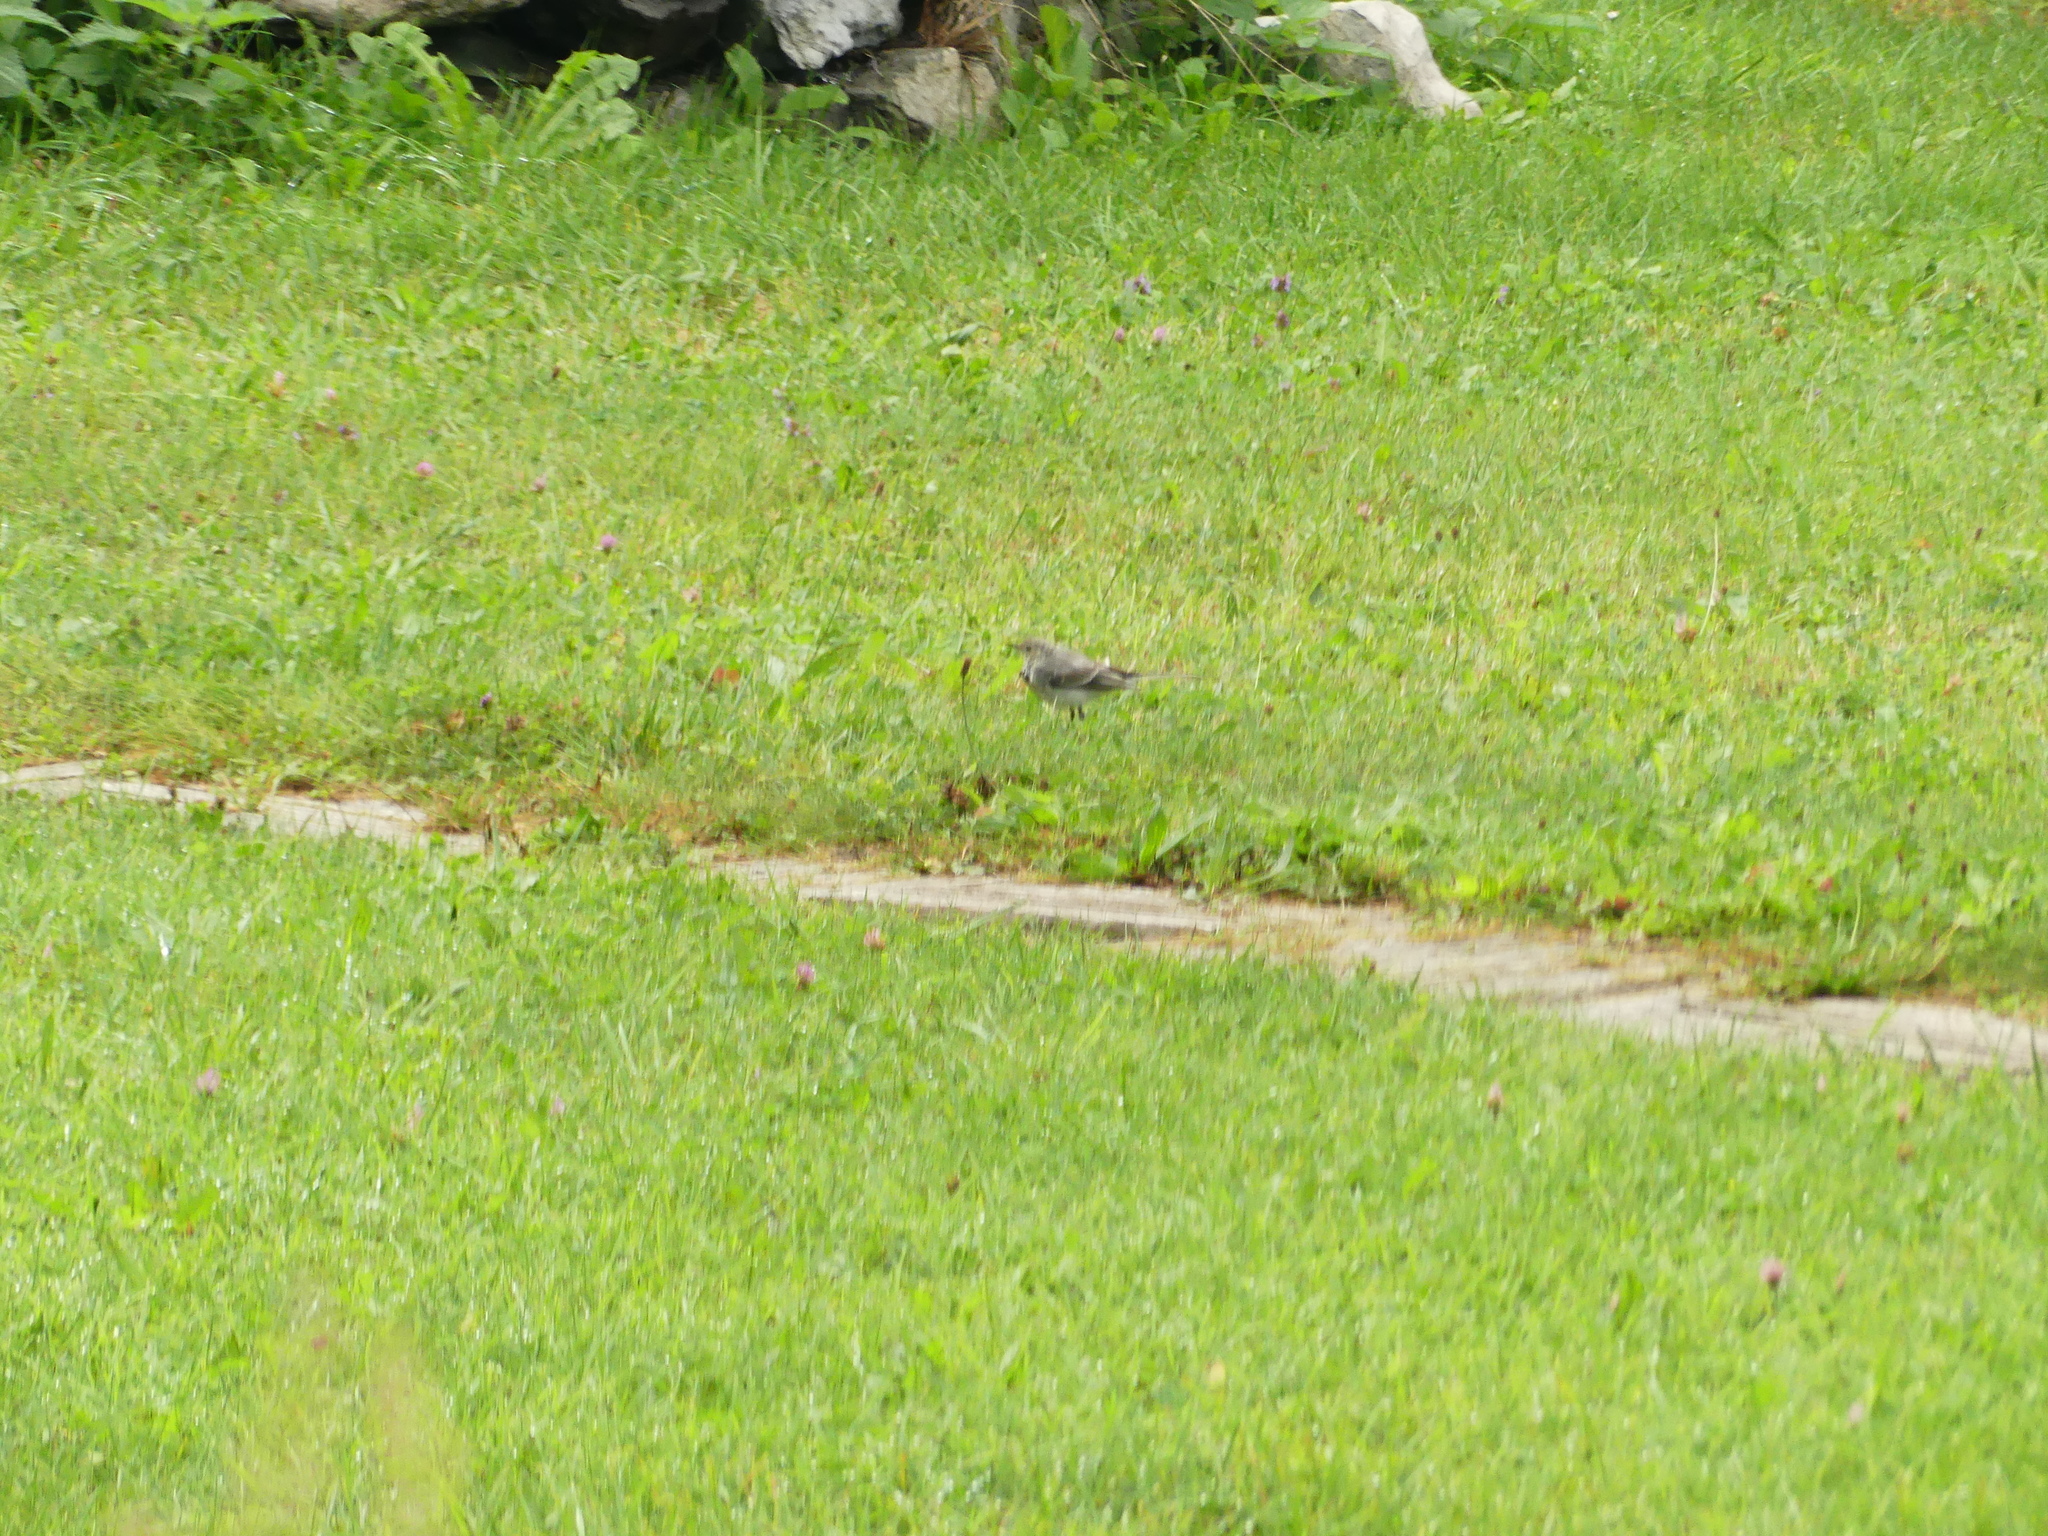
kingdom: Animalia
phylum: Chordata
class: Aves
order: Passeriformes
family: Motacillidae
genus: Motacilla
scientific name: Motacilla alba
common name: White wagtail
